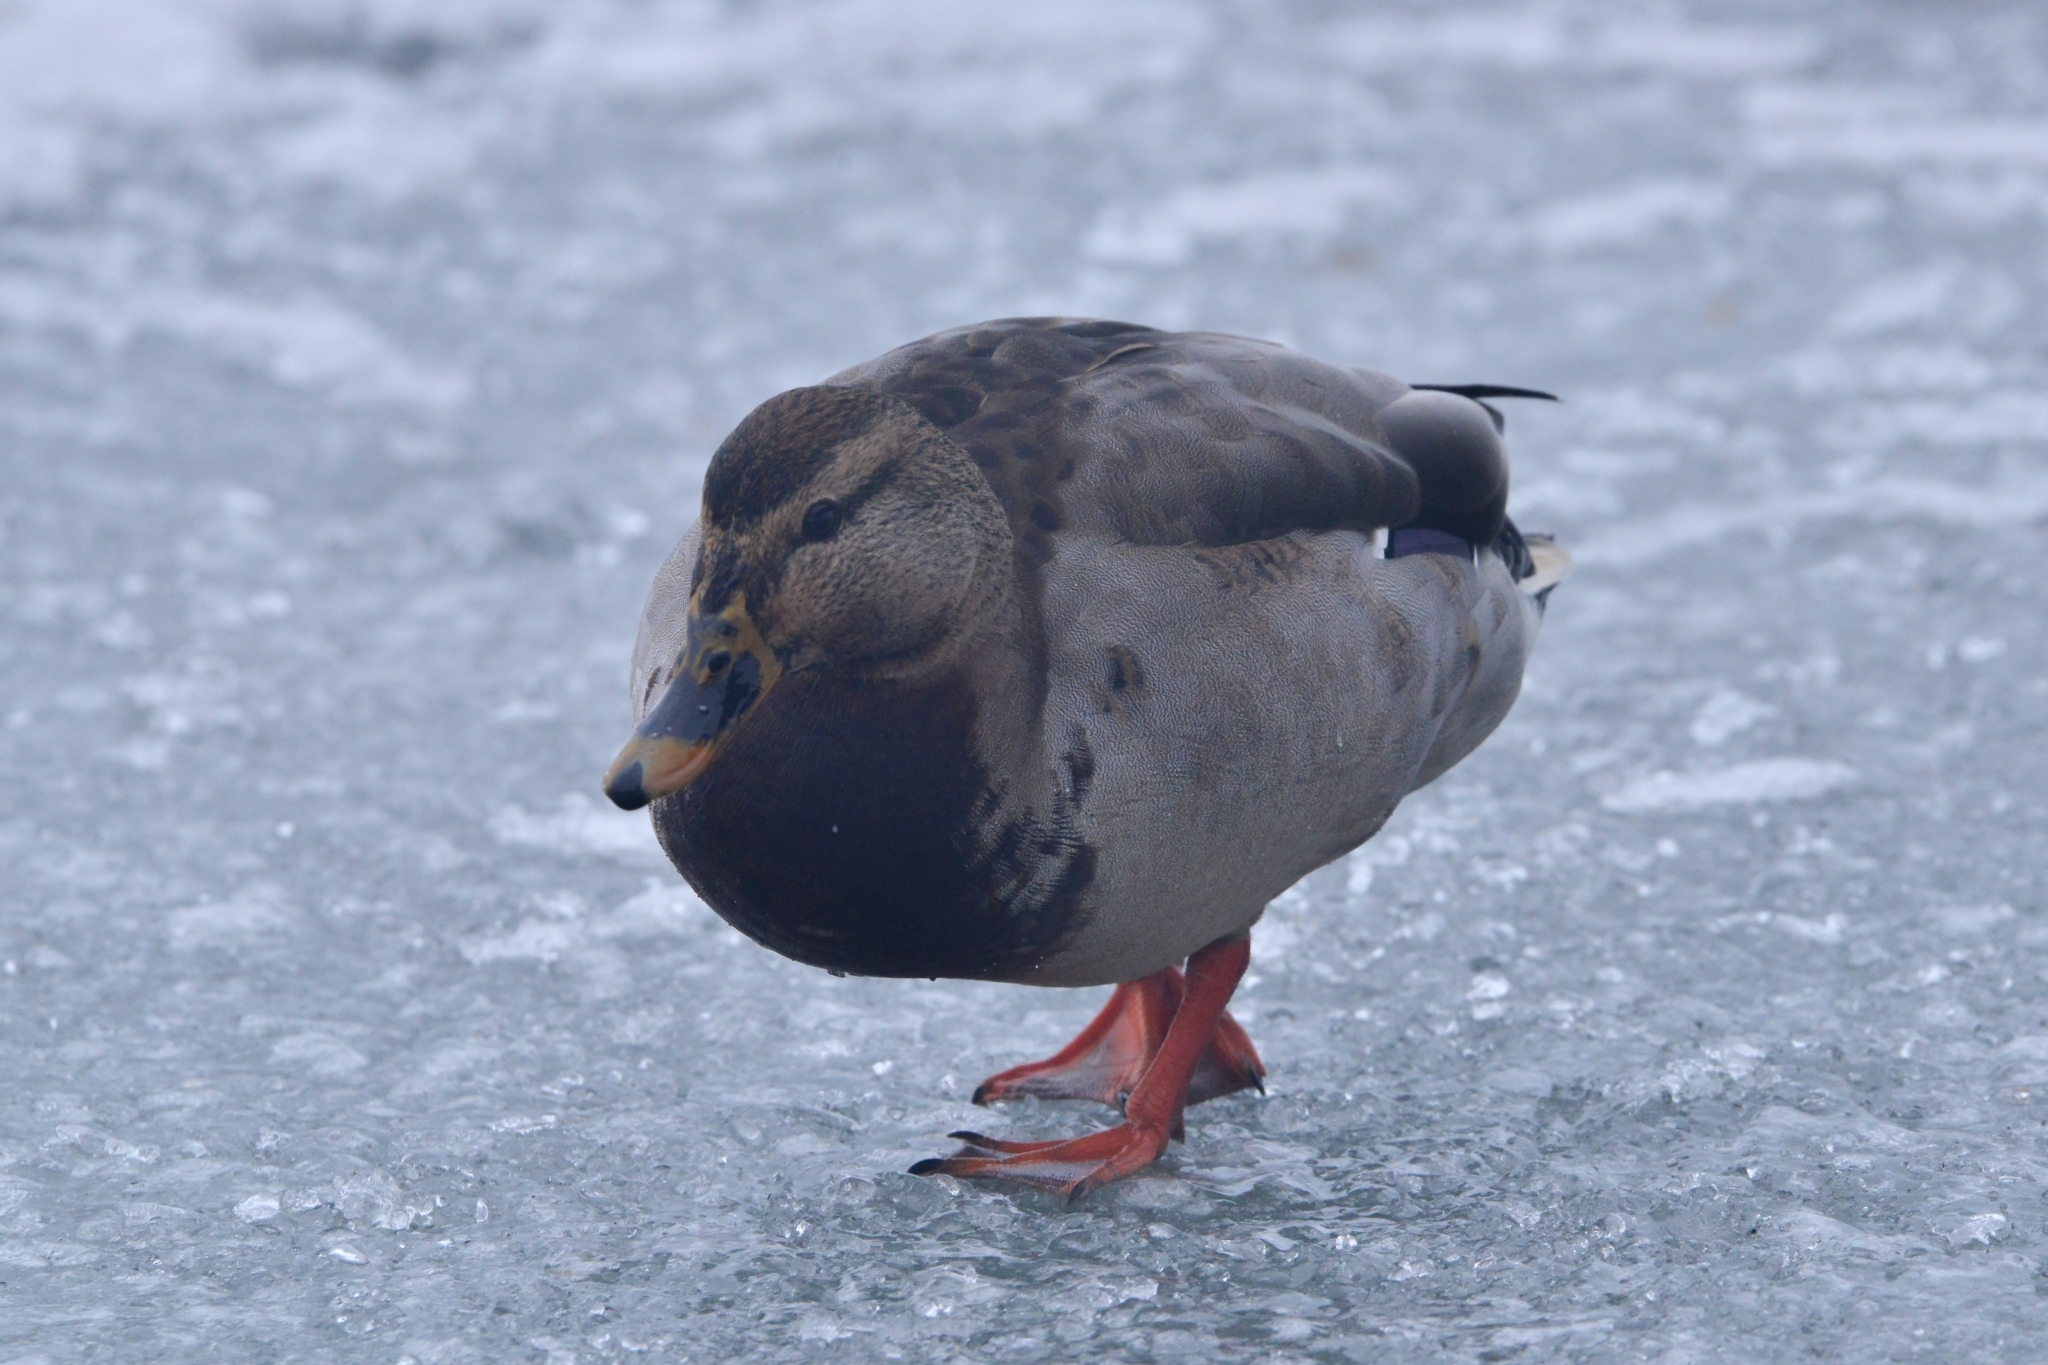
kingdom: Animalia
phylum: Chordata
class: Aves
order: Anseriformes
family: Anatidae
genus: Anas
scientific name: Anas platyrhynchos
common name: Mallard
